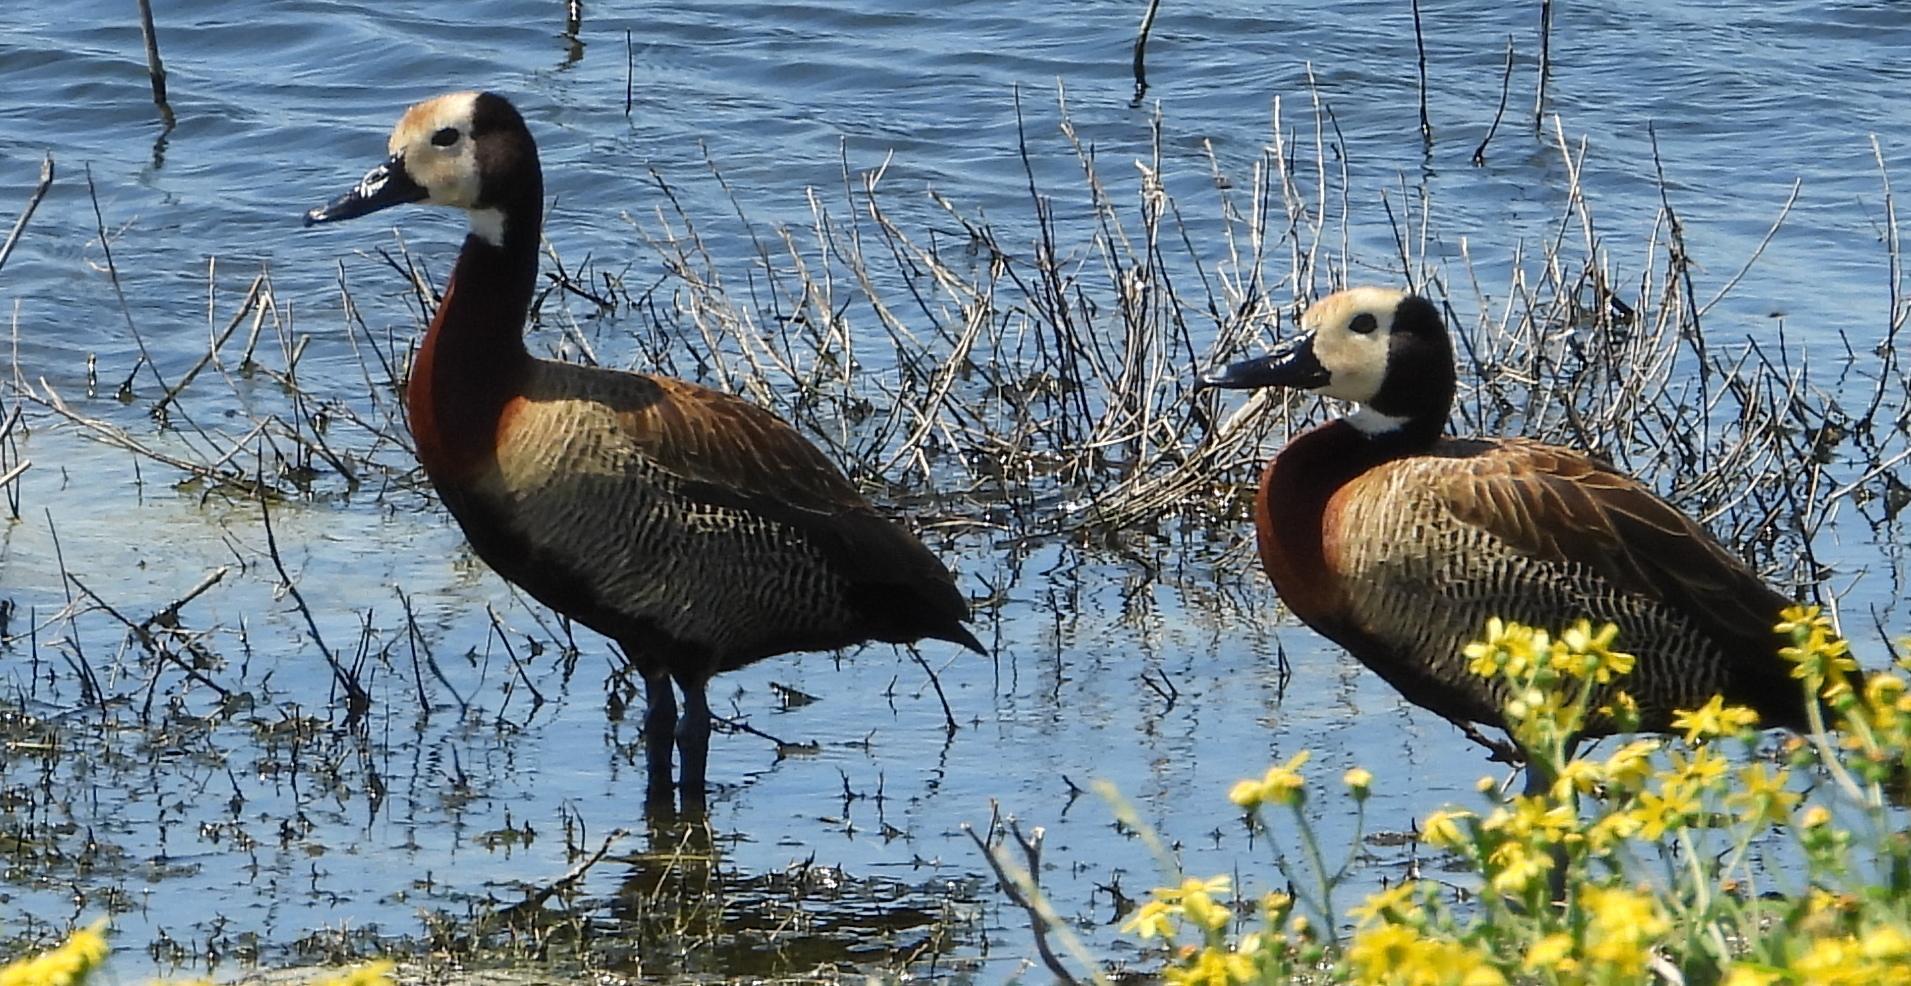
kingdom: Animalia
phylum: Chordata
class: Aves
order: Anseriformes
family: Anatidae
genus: Dendrocygna
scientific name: Dendrocygna viduata
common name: White-faced whistling duck
